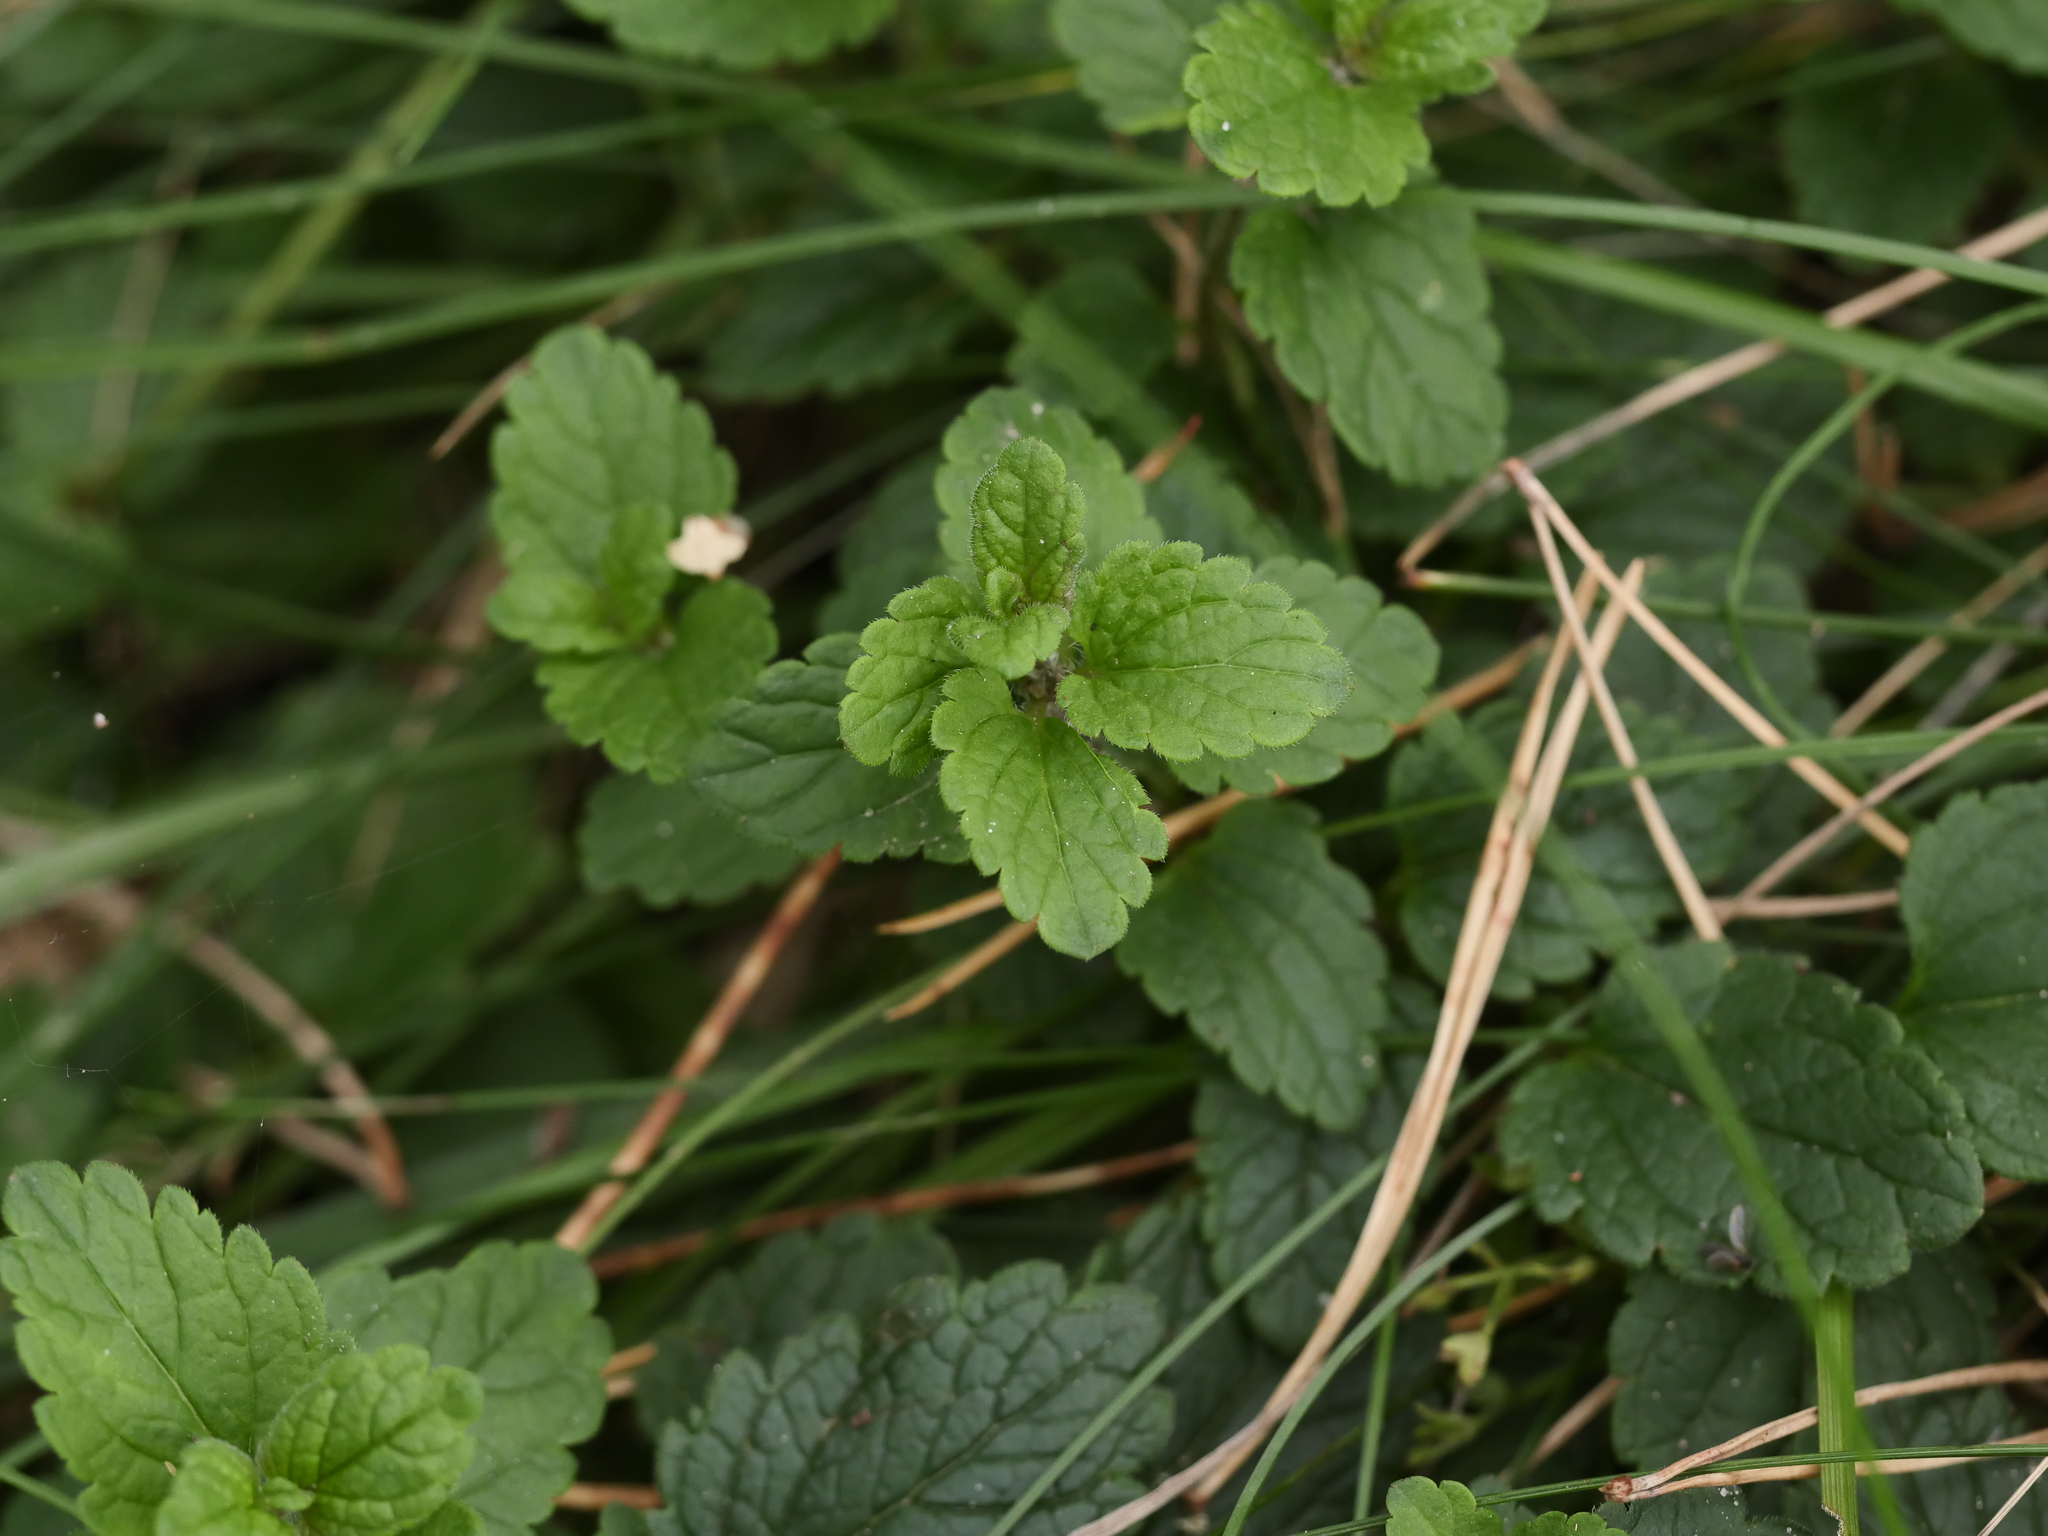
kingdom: Plantae
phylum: Tracheophyta
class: Magnoliopsida
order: Lamiales
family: Plantaginaceae
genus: Veronica
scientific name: Veronica chamaedrys
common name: Germander speedwell
